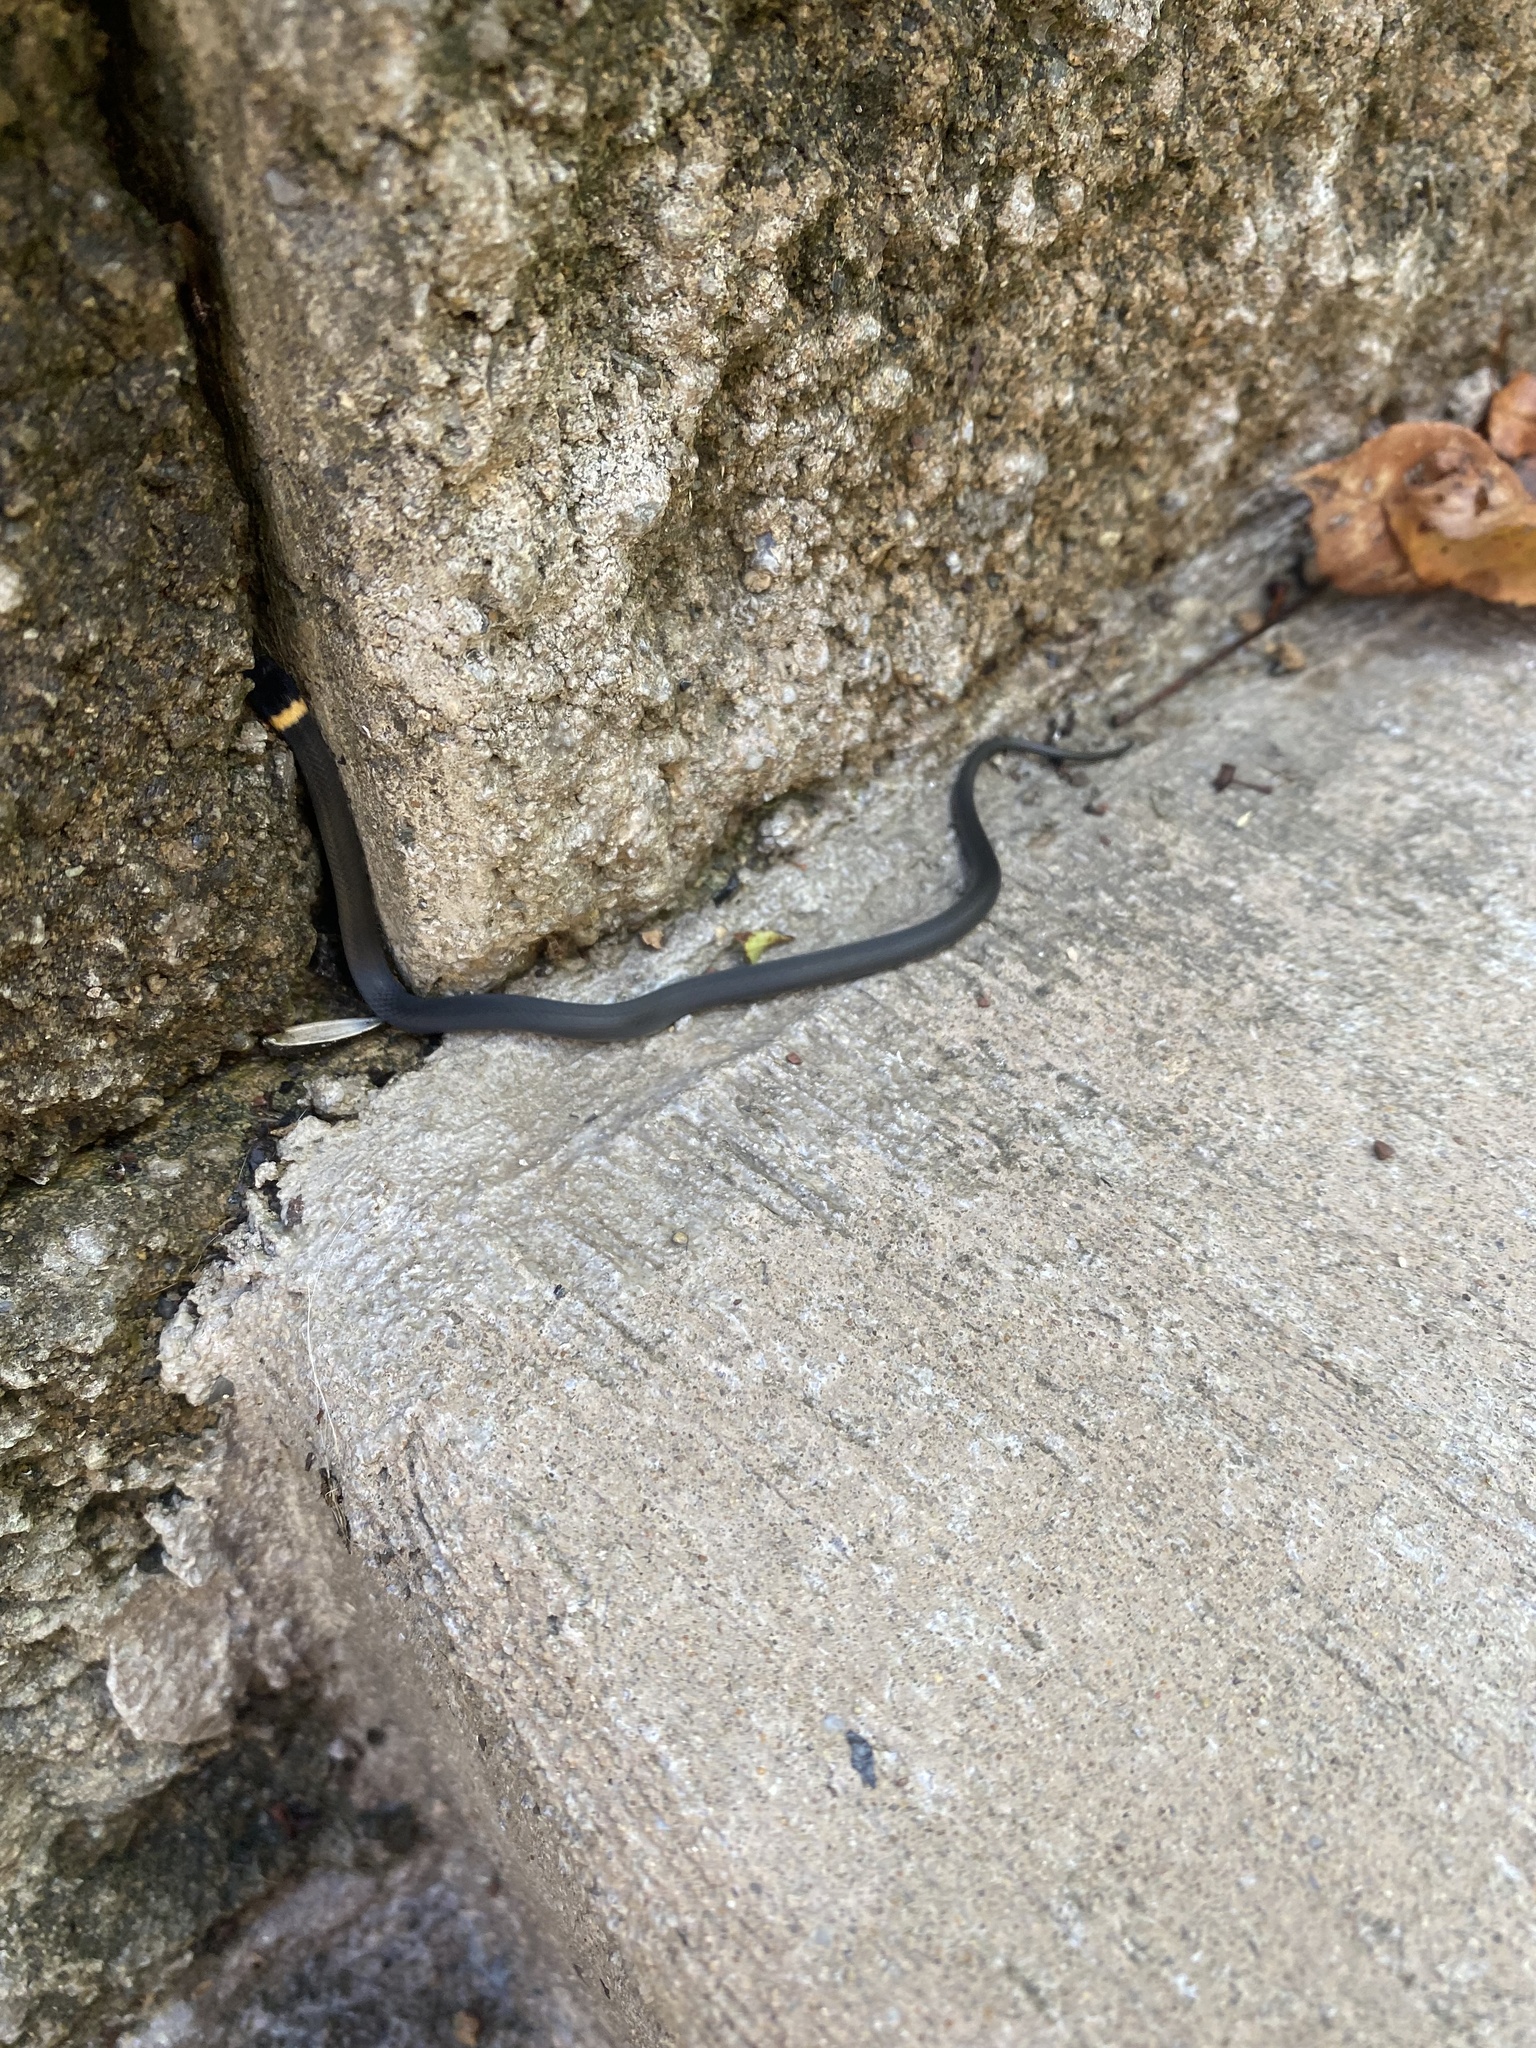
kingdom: Animalia
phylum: Chordata
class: Squamata
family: Colubridae
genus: Diadophis
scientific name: Diadophis punctatus
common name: Ringneck snake
